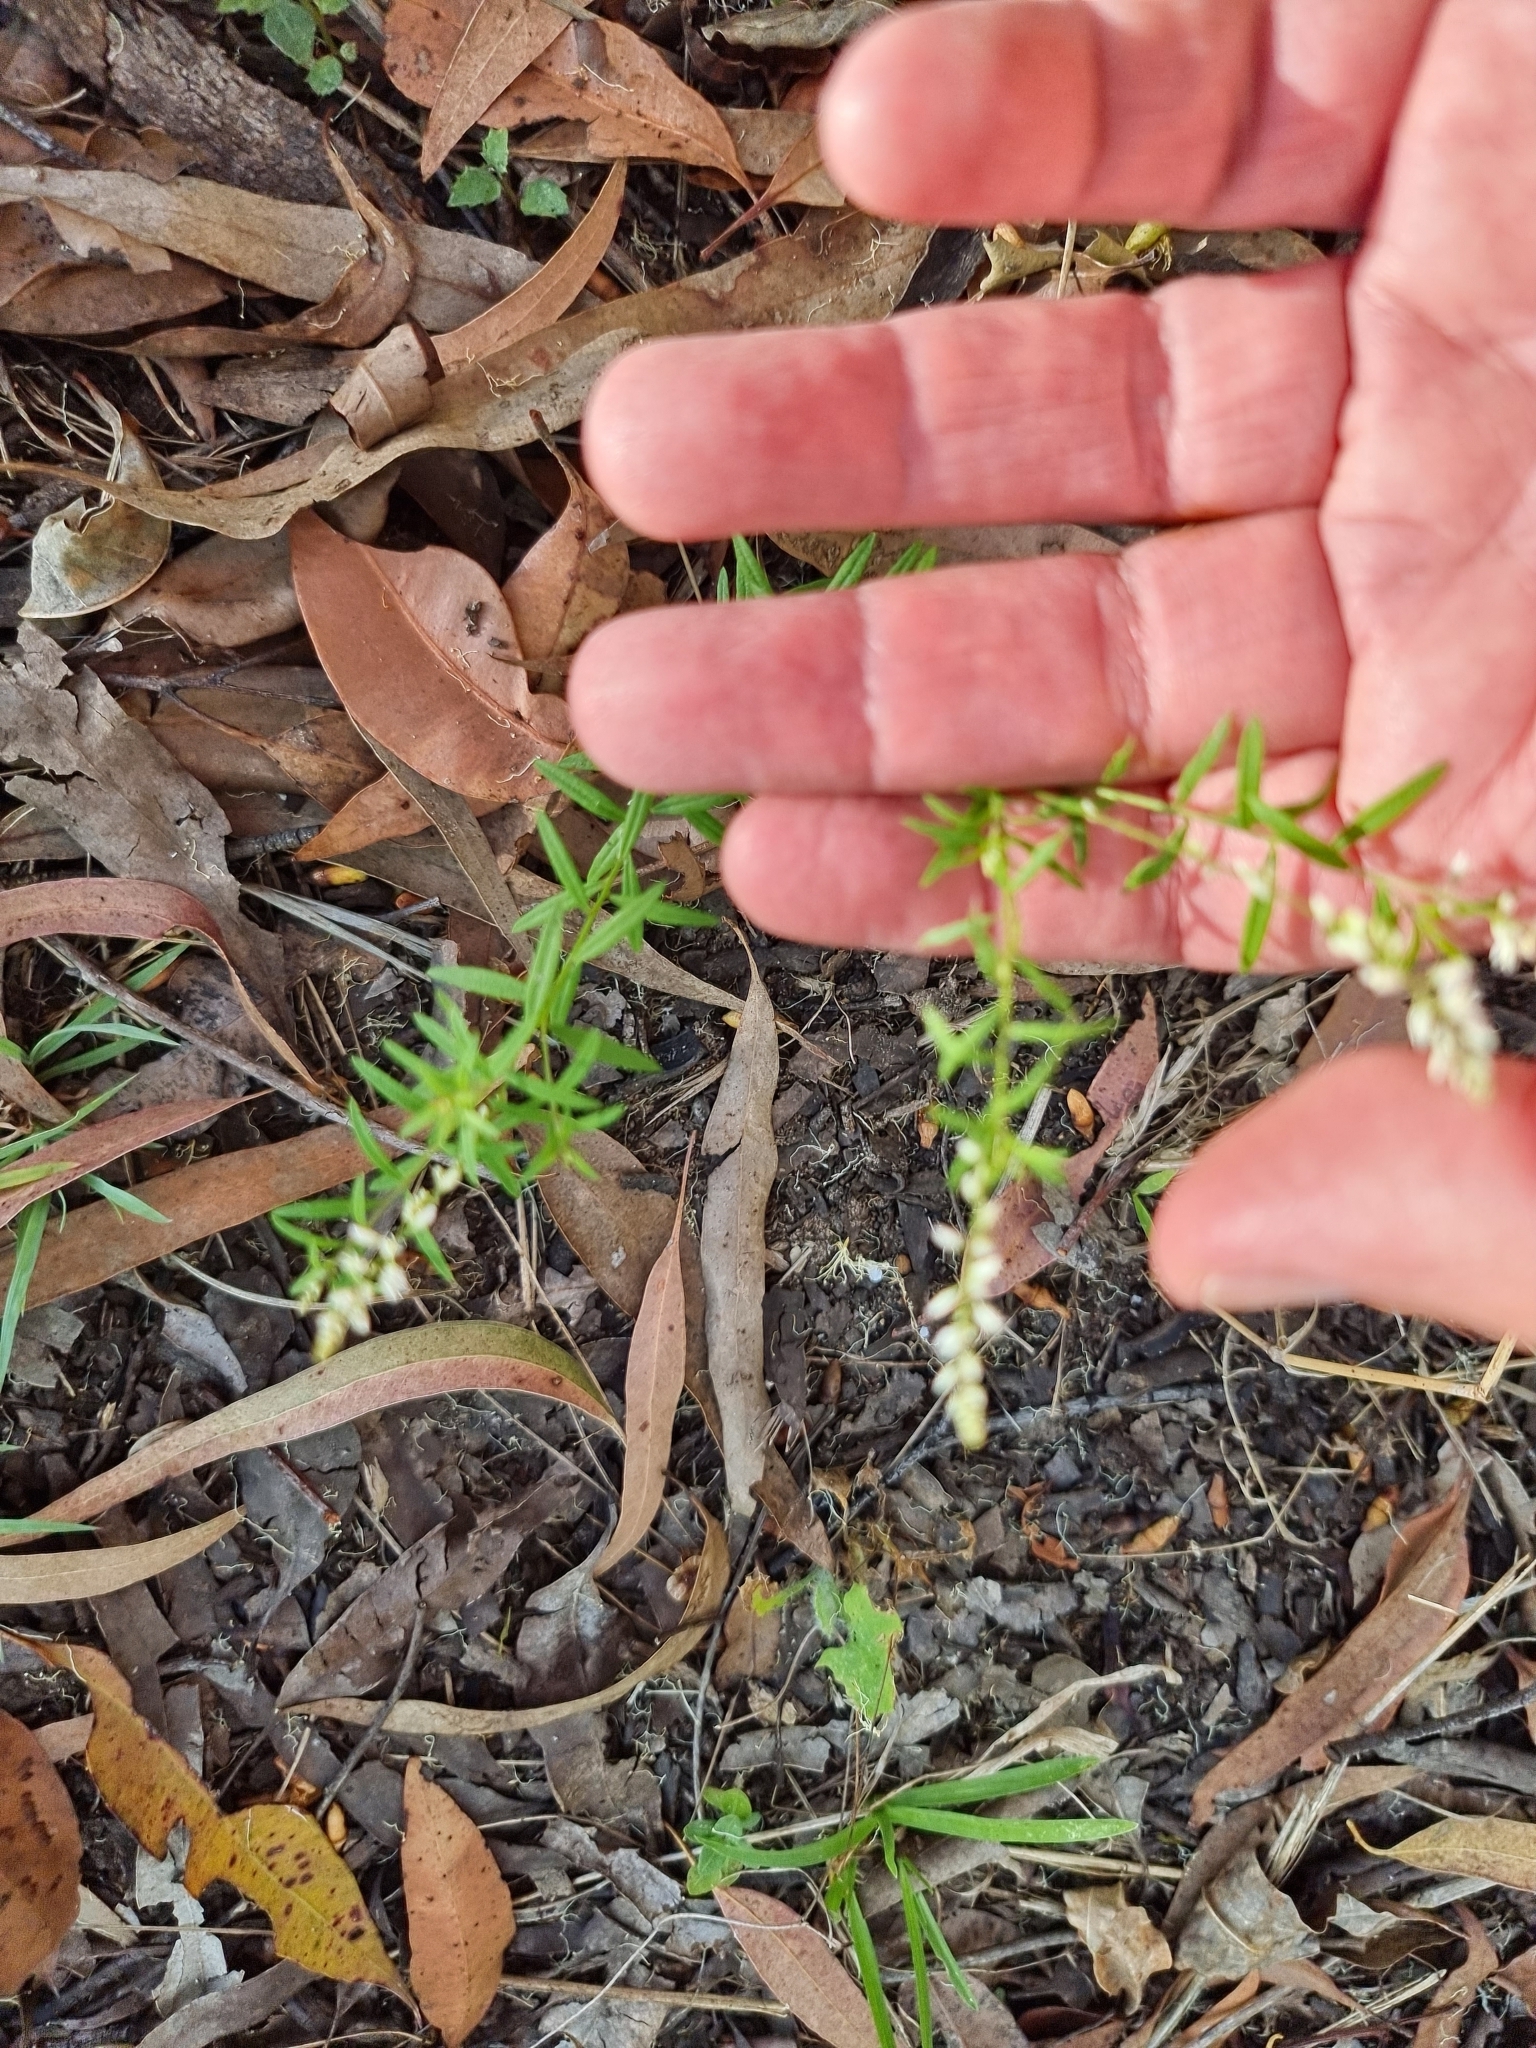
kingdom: Plantae
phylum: Tracheophyta
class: Magnoliopsida
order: Fabales
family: Polygalaceae
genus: Polygala
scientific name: Polygala paniculata
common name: Orosne
